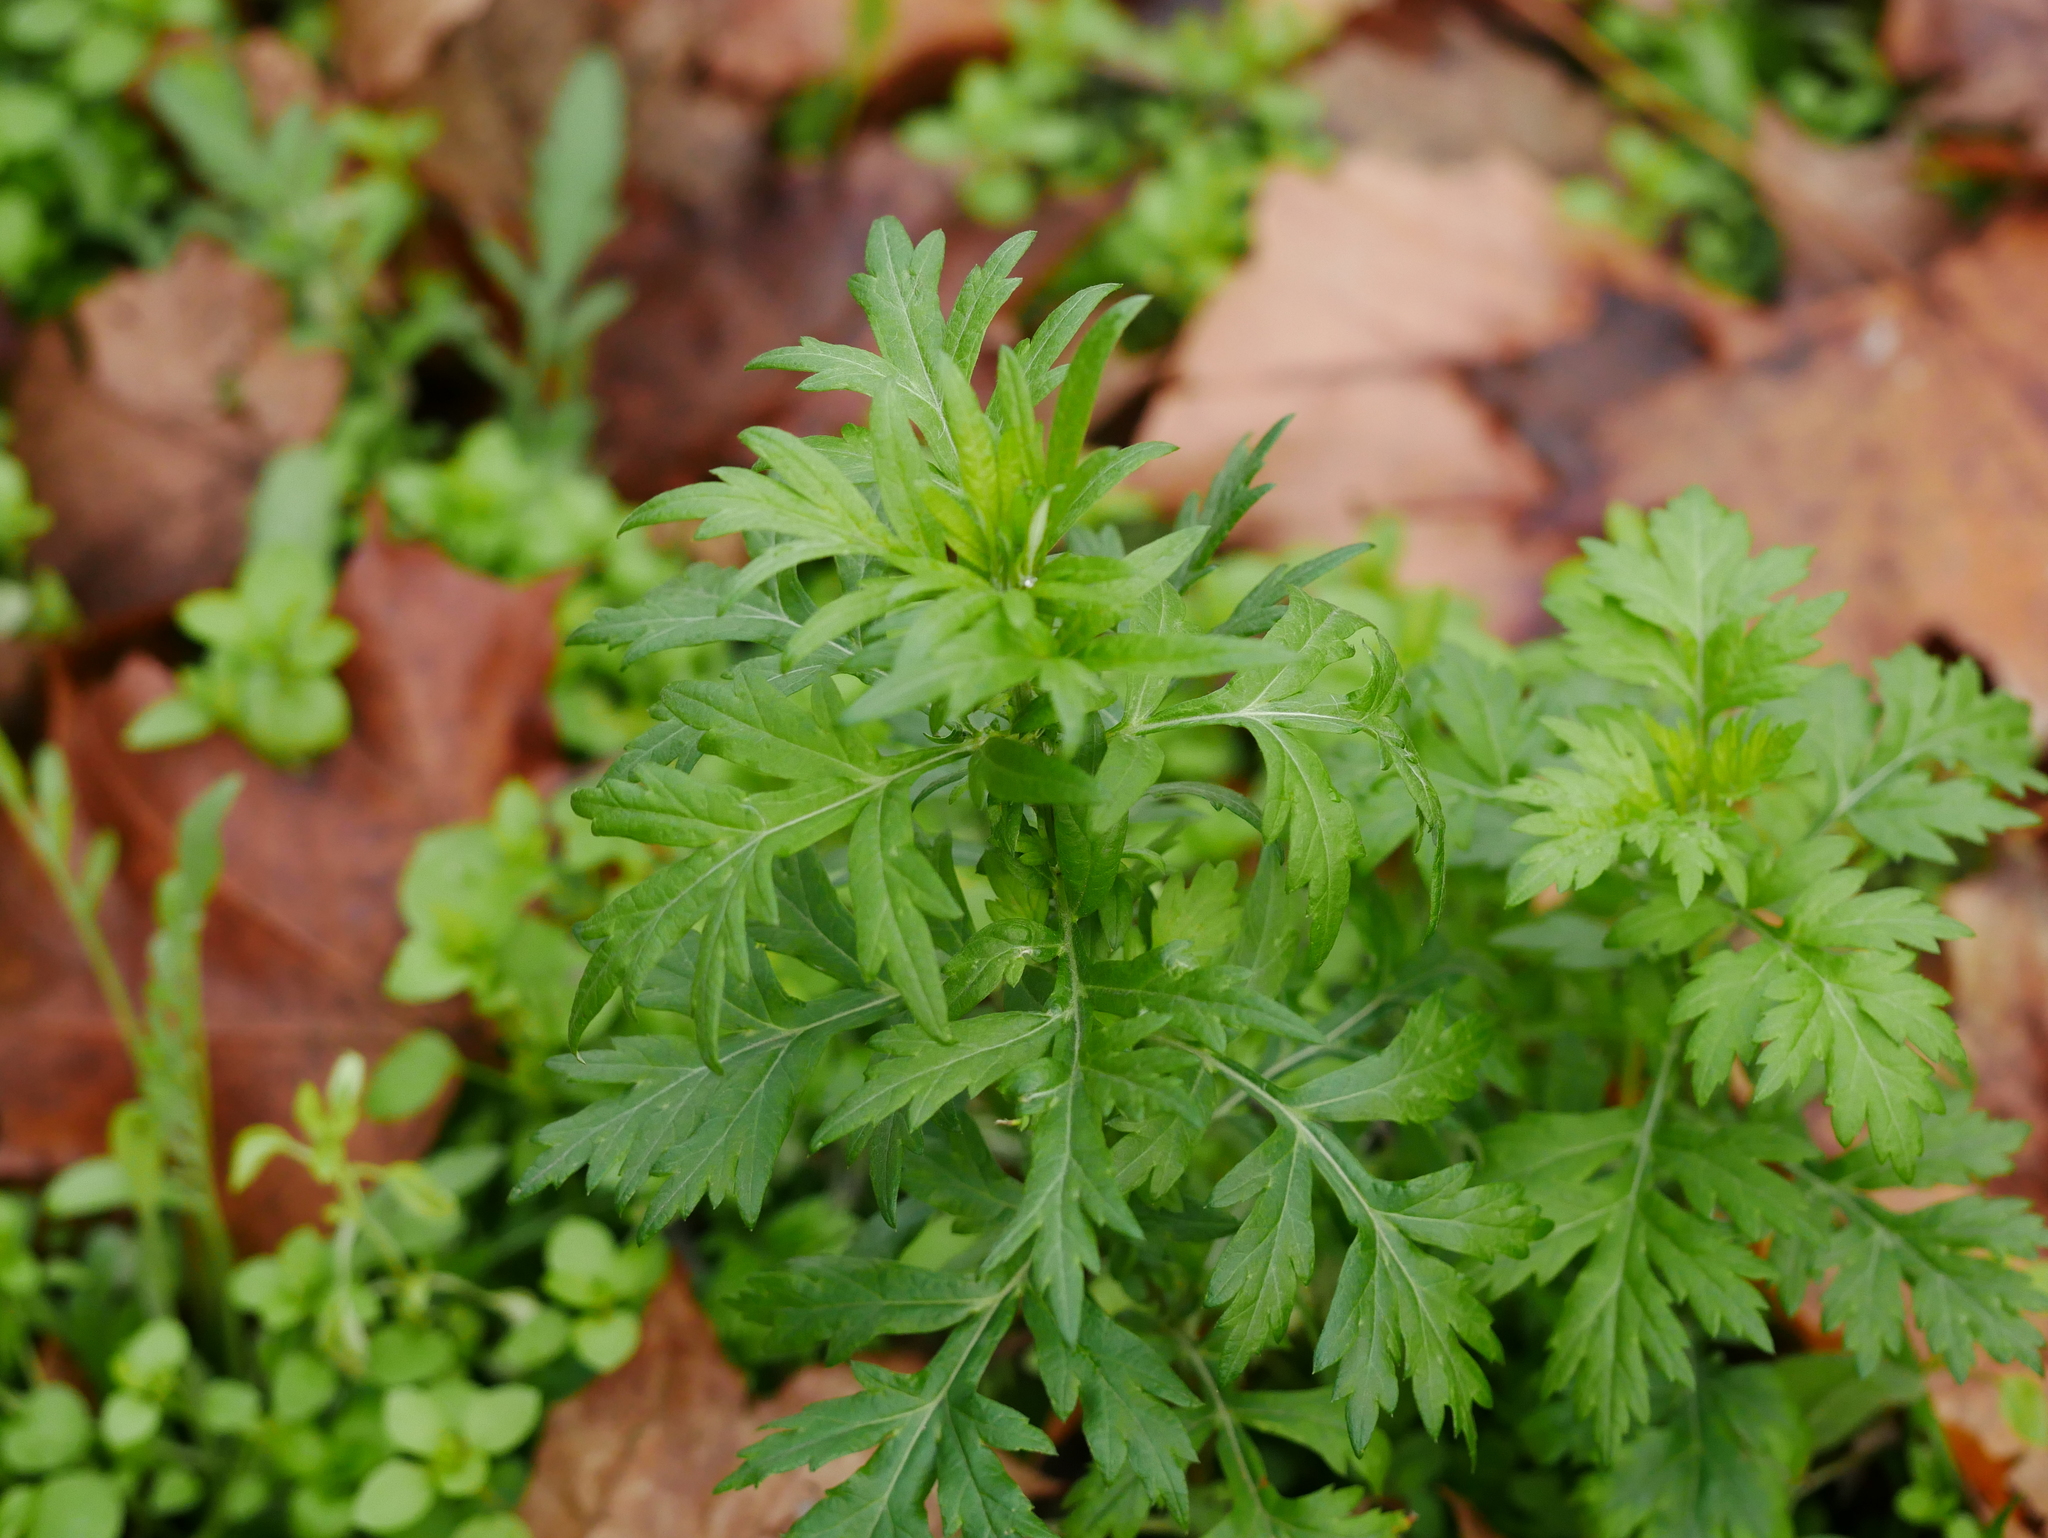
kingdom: Plantae
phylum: Tracheophyta
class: Magnoliopsida
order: Asterales
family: Asteraceae
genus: Artemisia
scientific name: Artemisia vulgaris
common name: Mugwort
